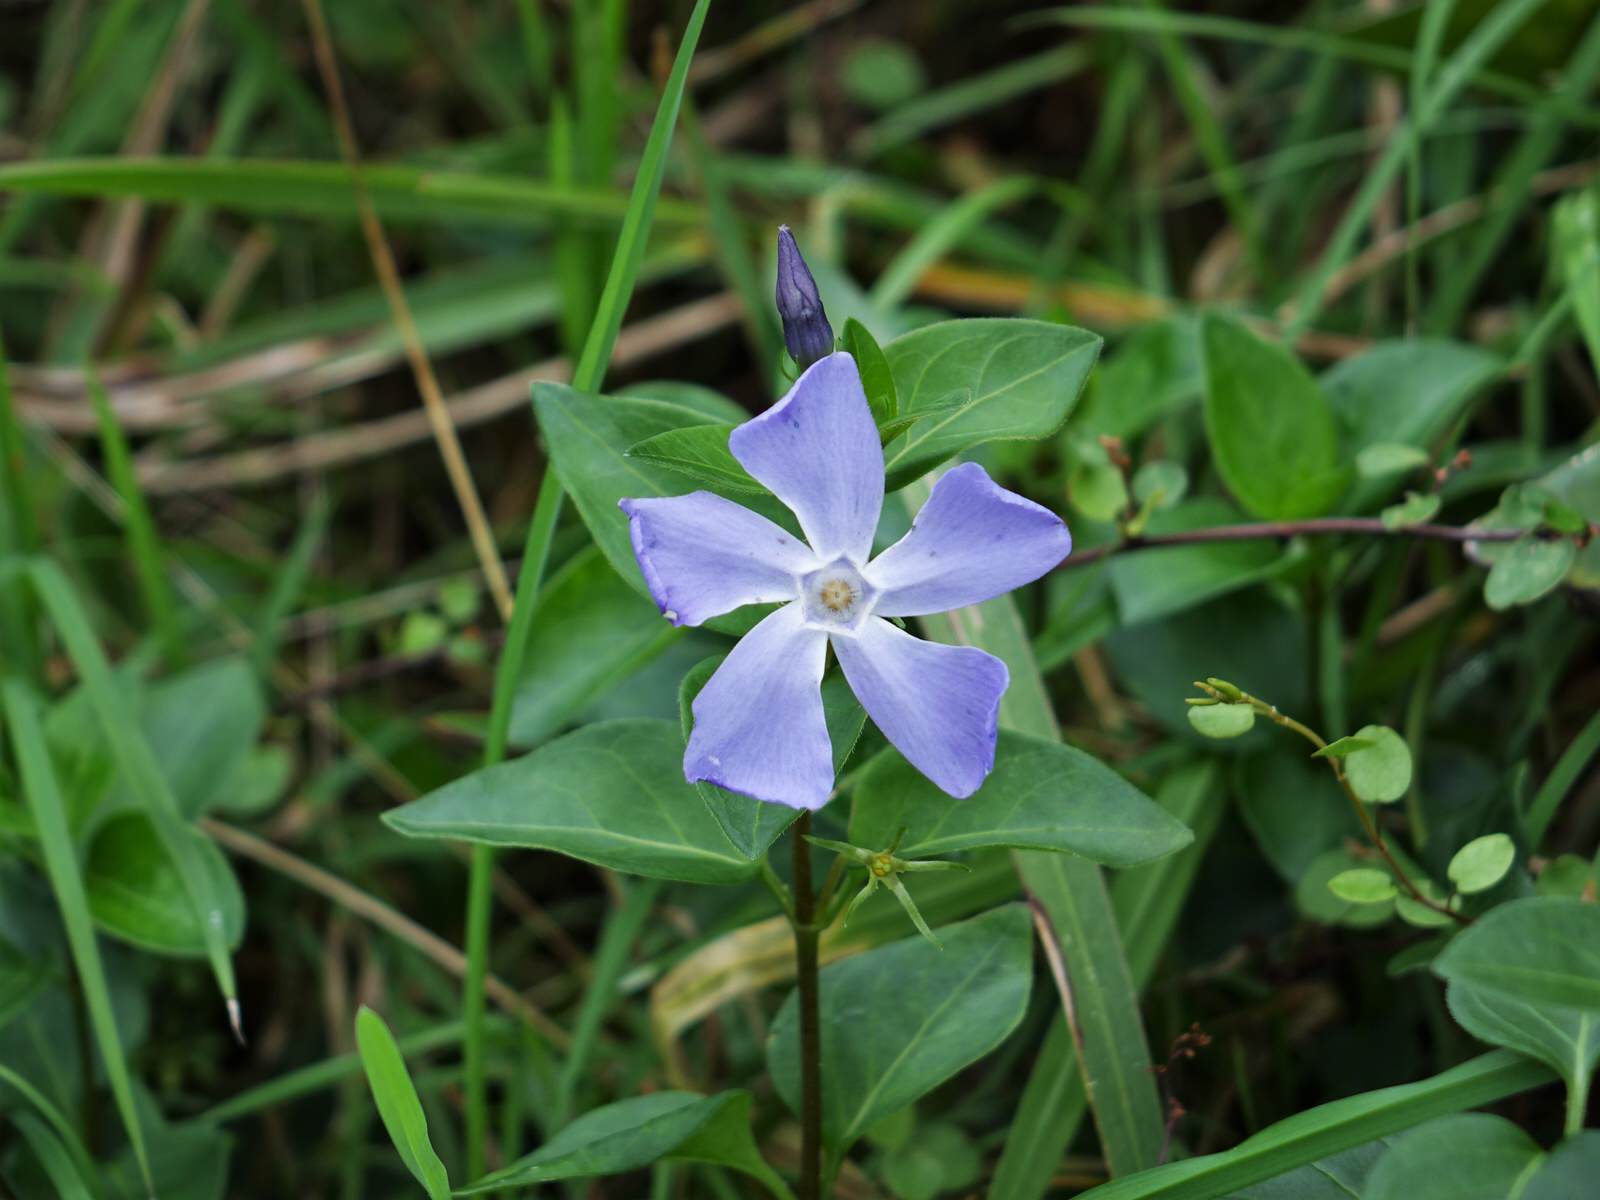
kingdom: Plantae
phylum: Tracheophyta
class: Magnoliopsida
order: Gentianales
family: Apocynaceae
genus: Vinca
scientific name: Vinca major
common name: Greater periwinkle
